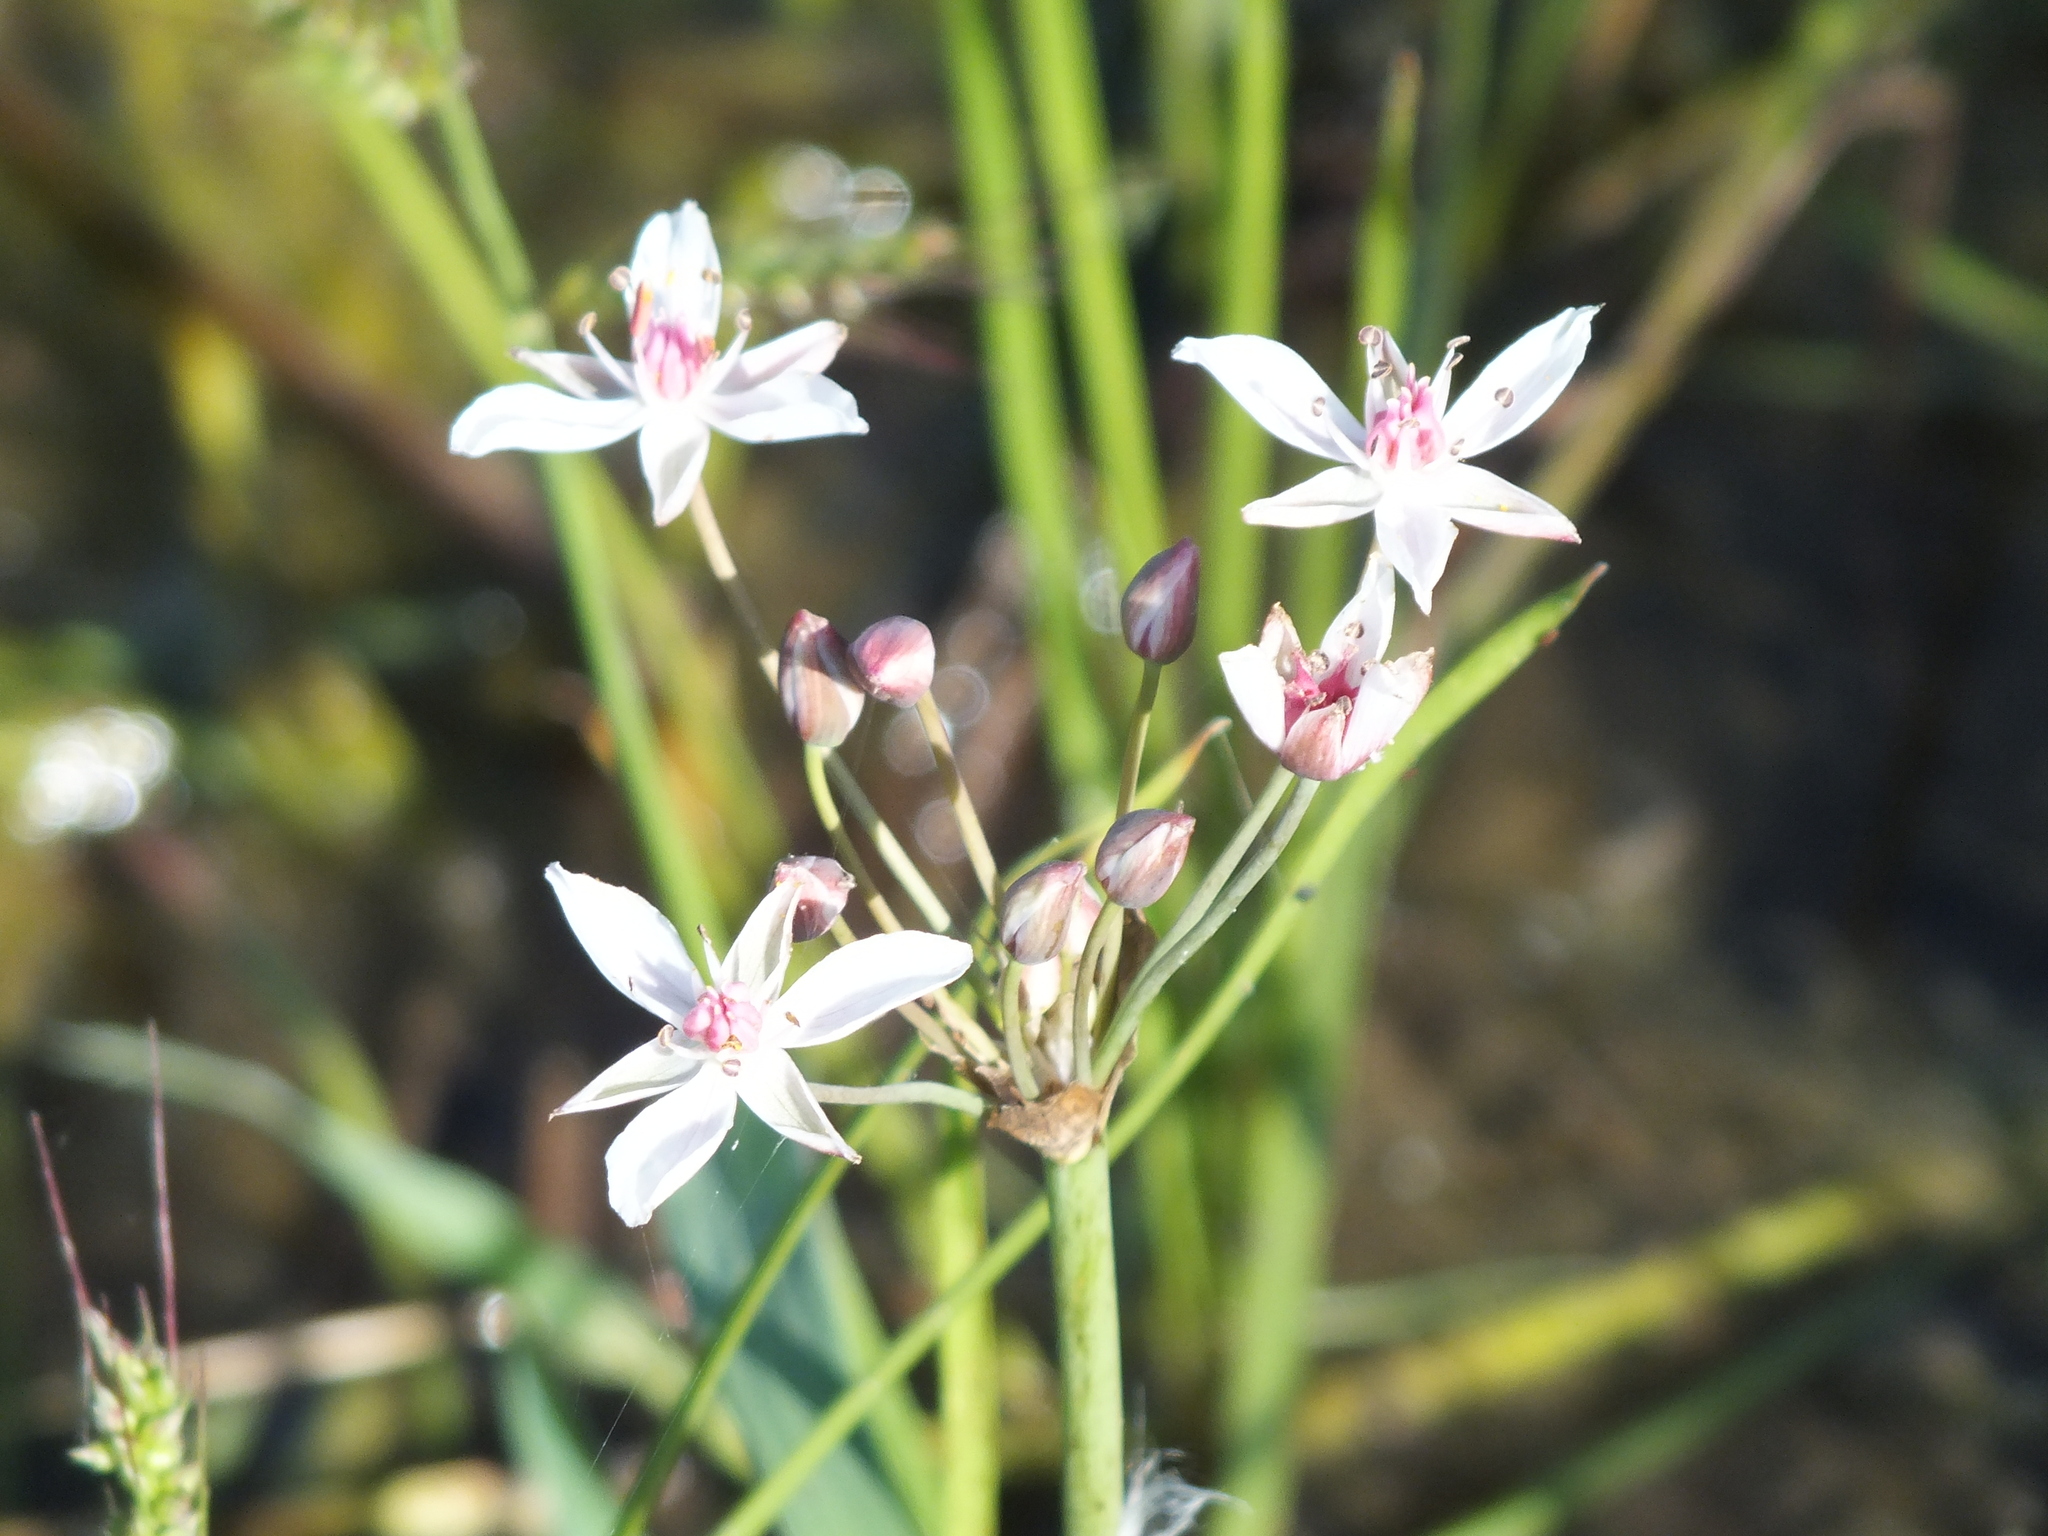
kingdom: Plantae
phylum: Tracheophyta
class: Liliopsida
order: Alismatales
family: Butomaceae
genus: Butomus
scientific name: Butomus umbellatus
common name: Flowering-rush
